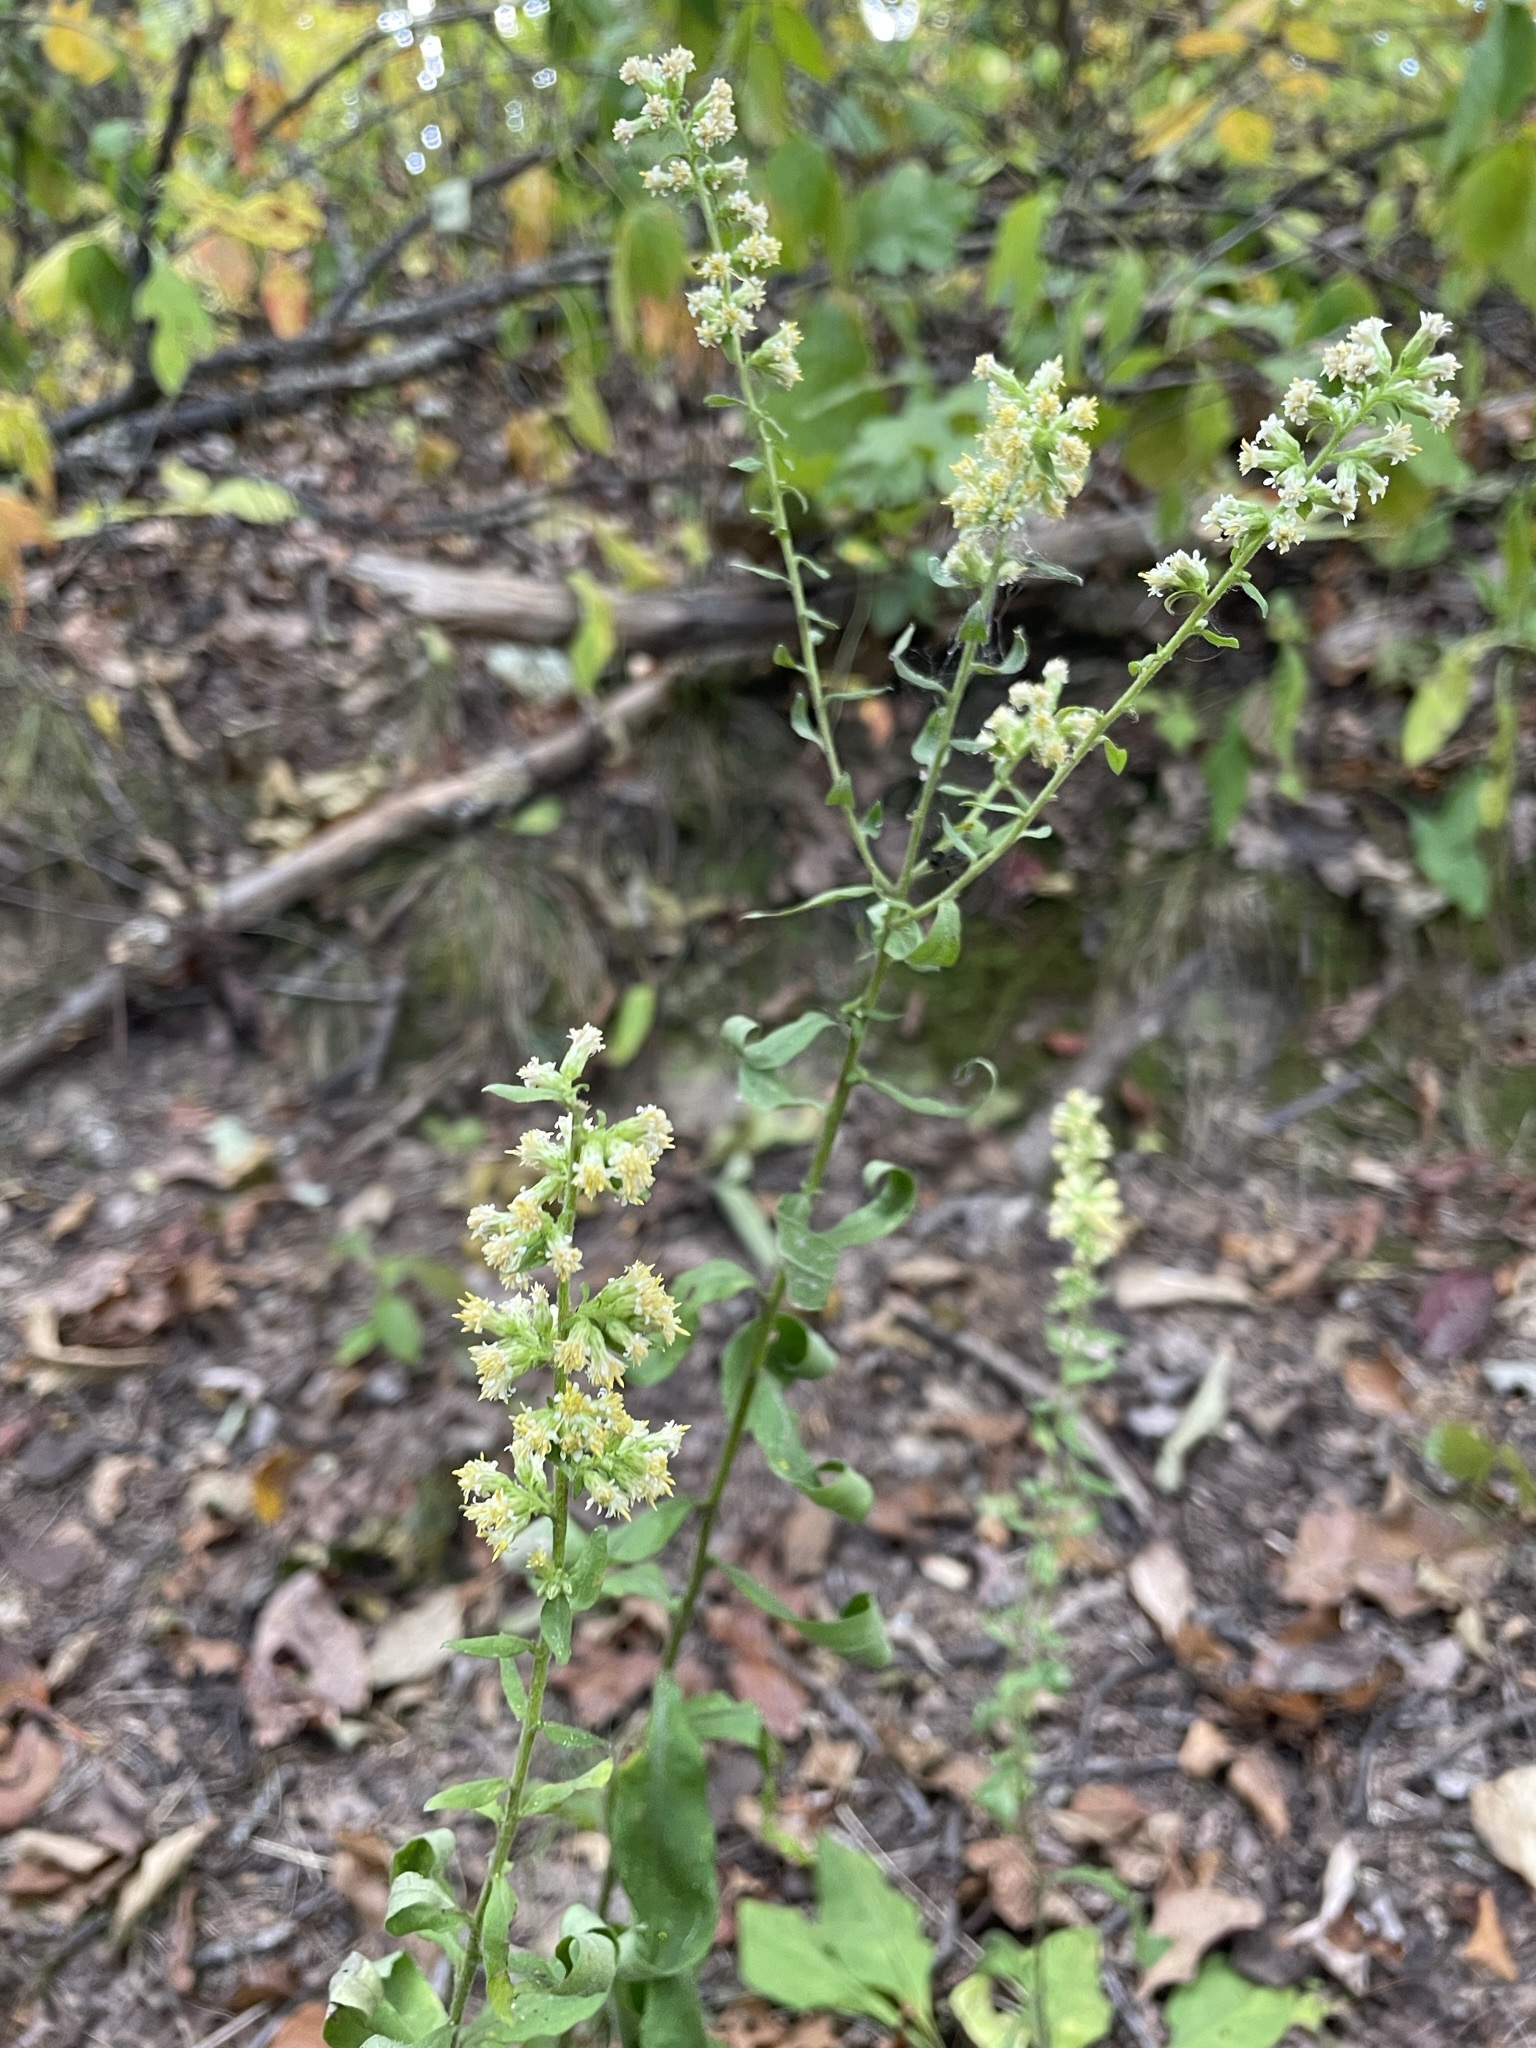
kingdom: Plantae
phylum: Tracheophyta
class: Magnoliopsida
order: Asterales
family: Asteraceae
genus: Solidago
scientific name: Solidago bicolor
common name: Silverrod
